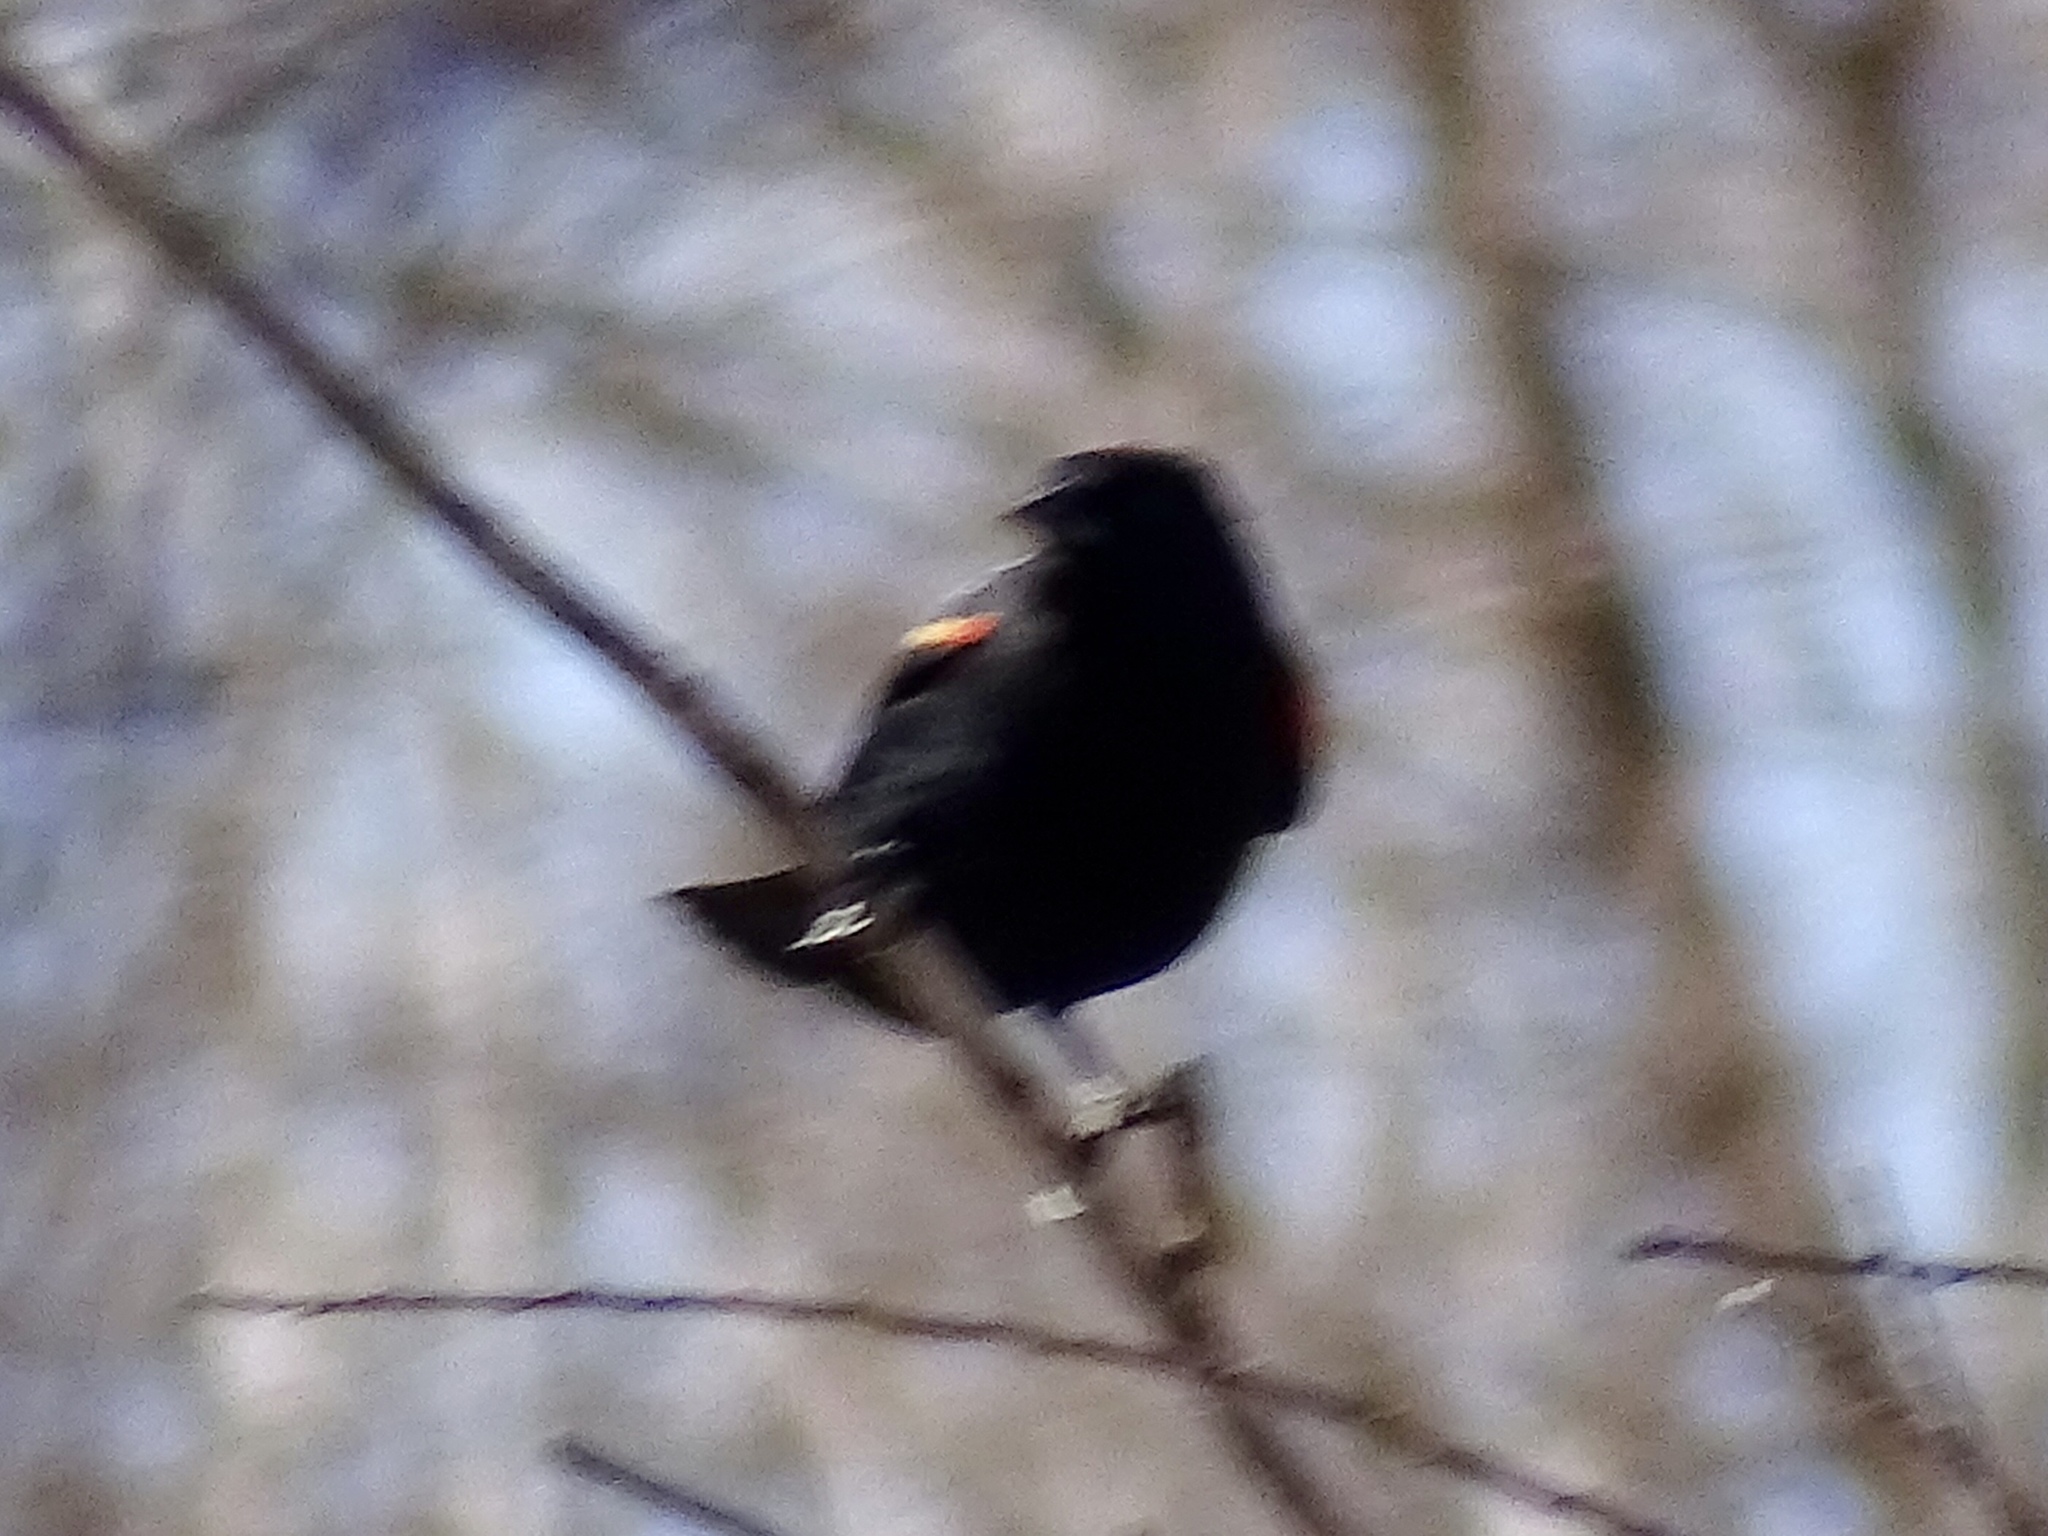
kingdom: Animalia
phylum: Chordata
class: Aves
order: Passeriformes
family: Icteridae
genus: Agelaius
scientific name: Agelaius phoeniceus
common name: Red-winged blackbird
